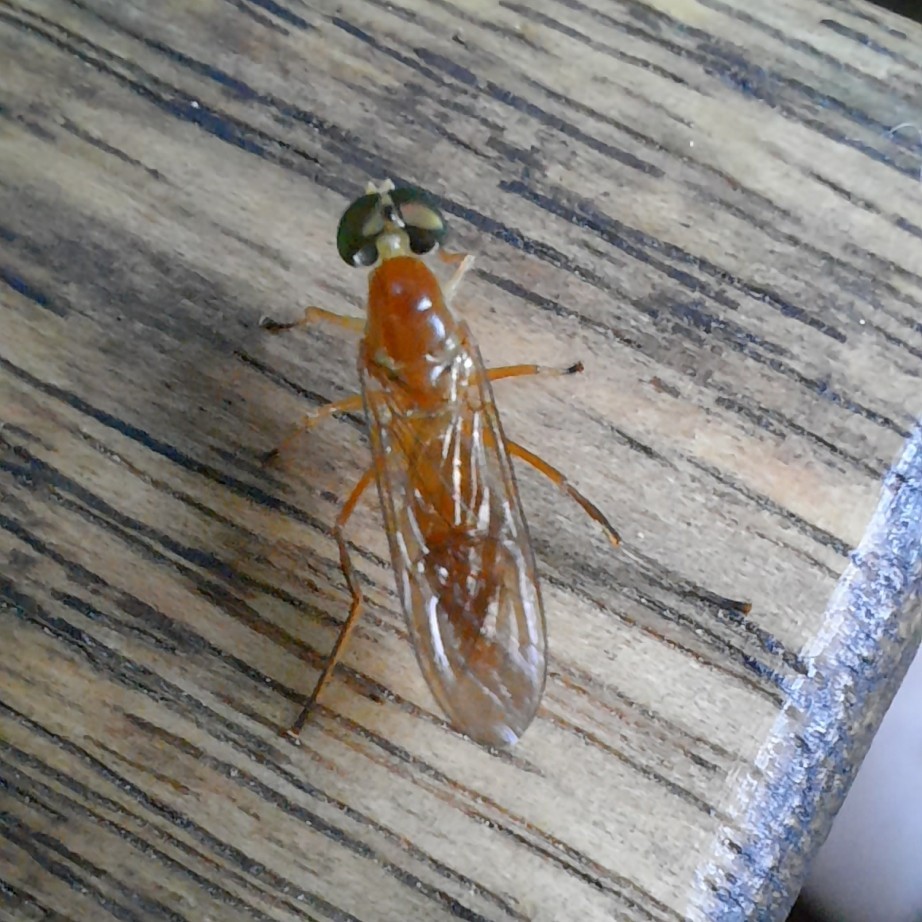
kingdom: Animalia
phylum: Arthropoda
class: Insecta
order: Diptera
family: Stratiomyidae
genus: Ptecticus
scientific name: Ptecticus trivittatus
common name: Compost fly
